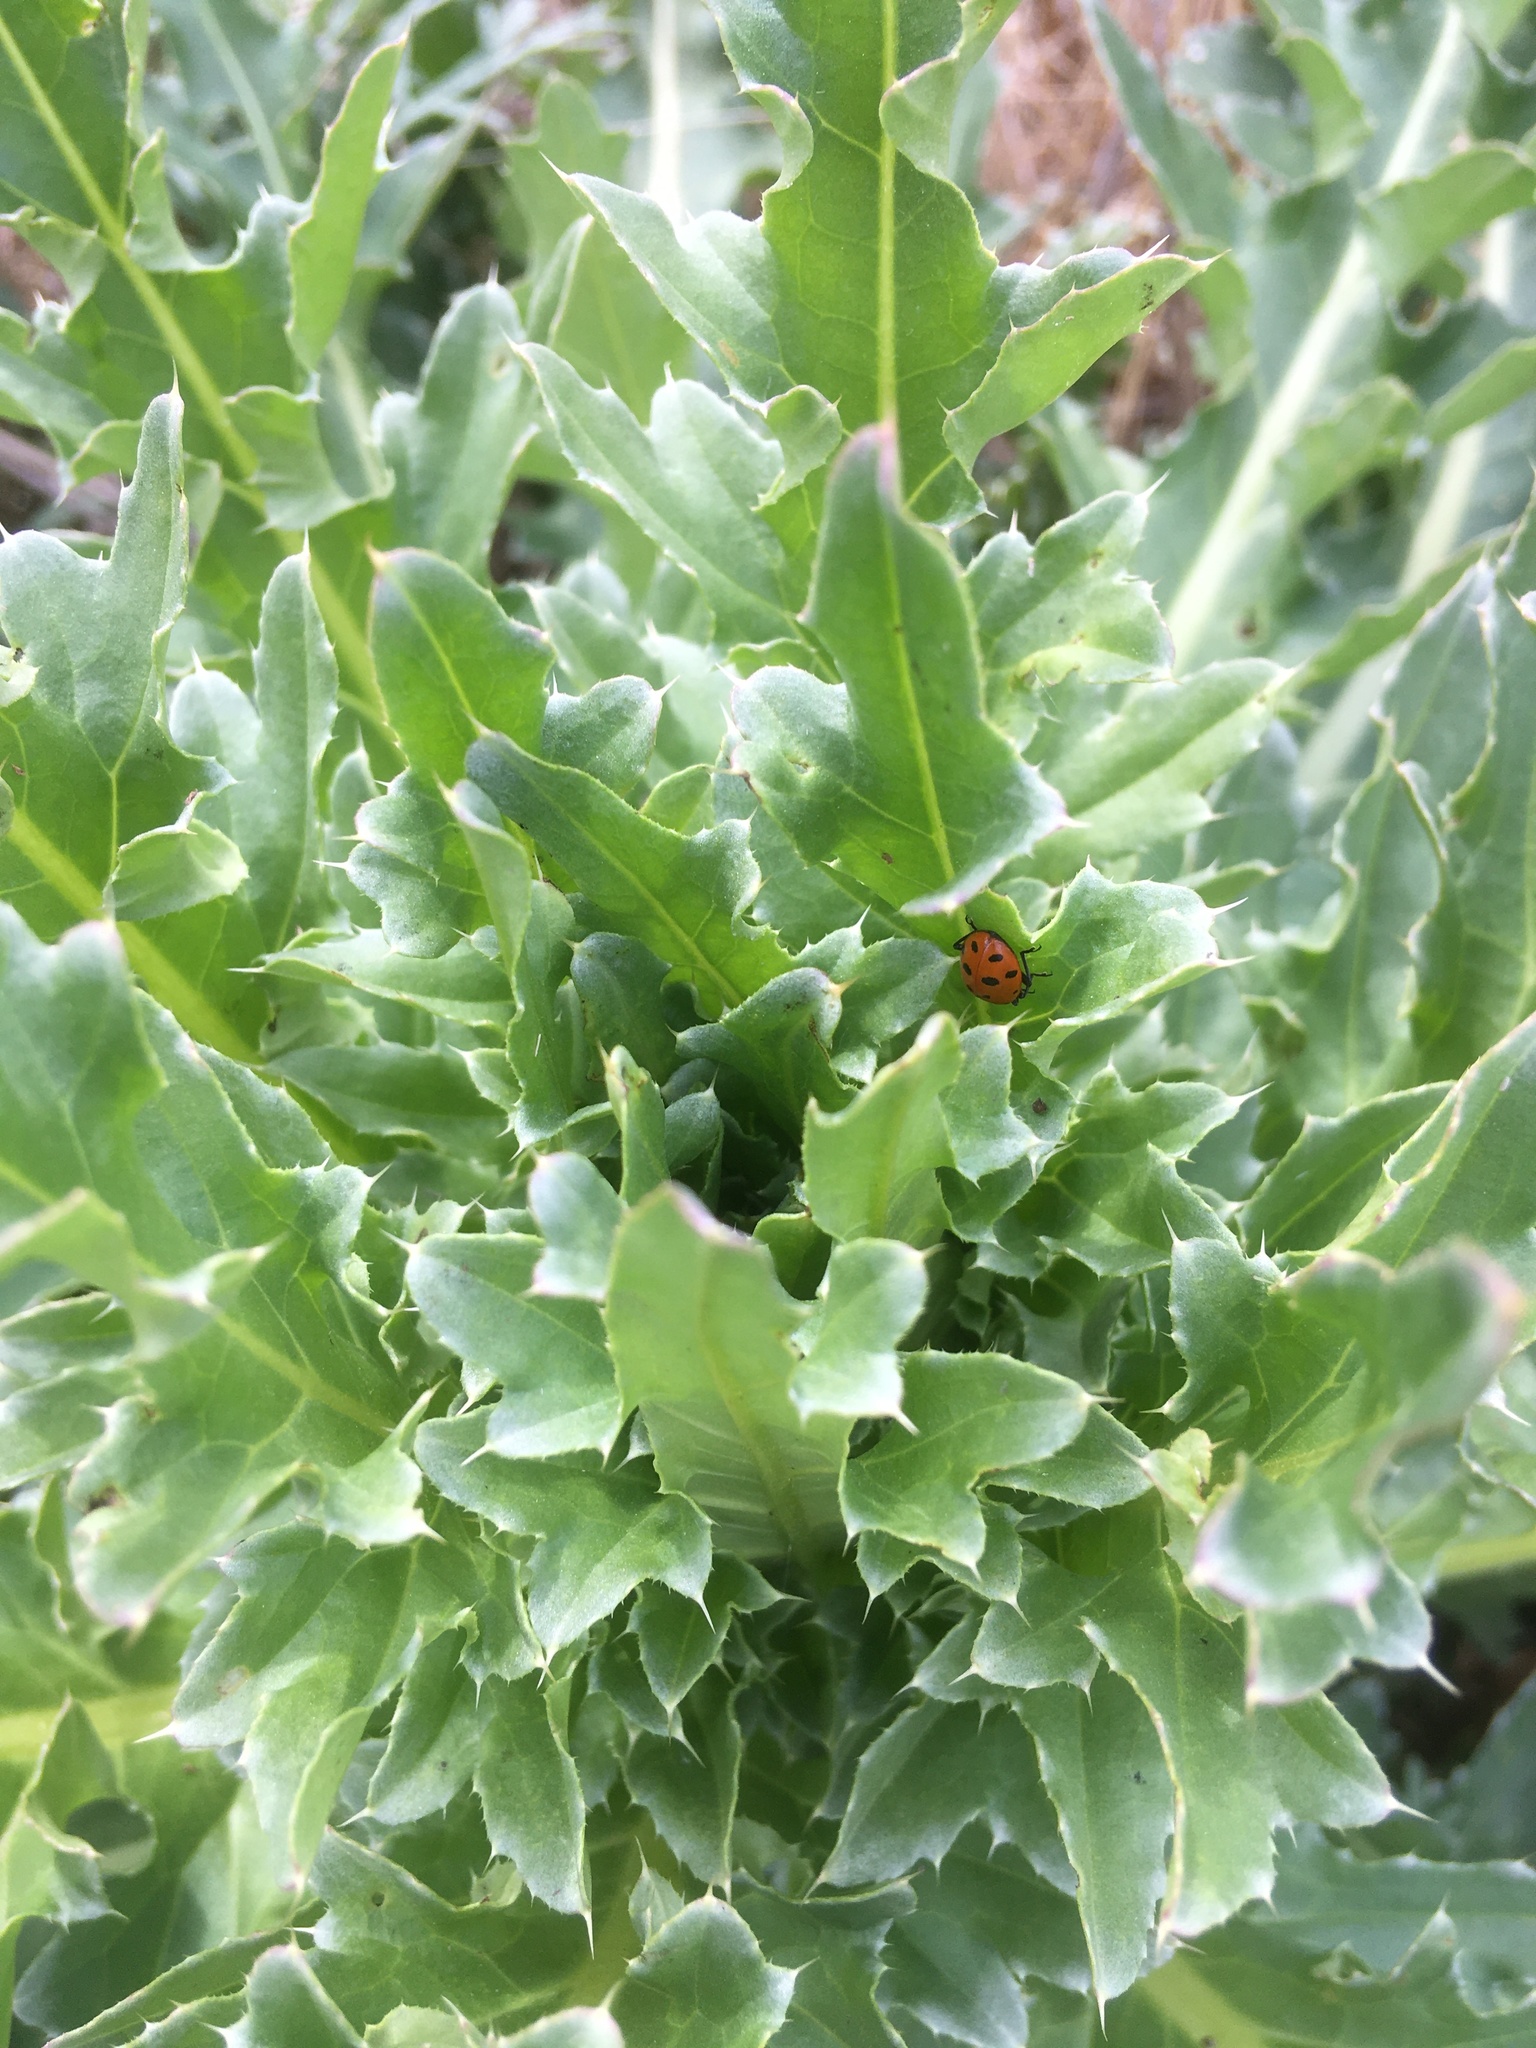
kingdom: Animalia
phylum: Arthropoda
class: Insecta
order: Coleoptera
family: Coccinellidae
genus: Hippodamia
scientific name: Hippodamia convergens
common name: Convergent lady beetle
